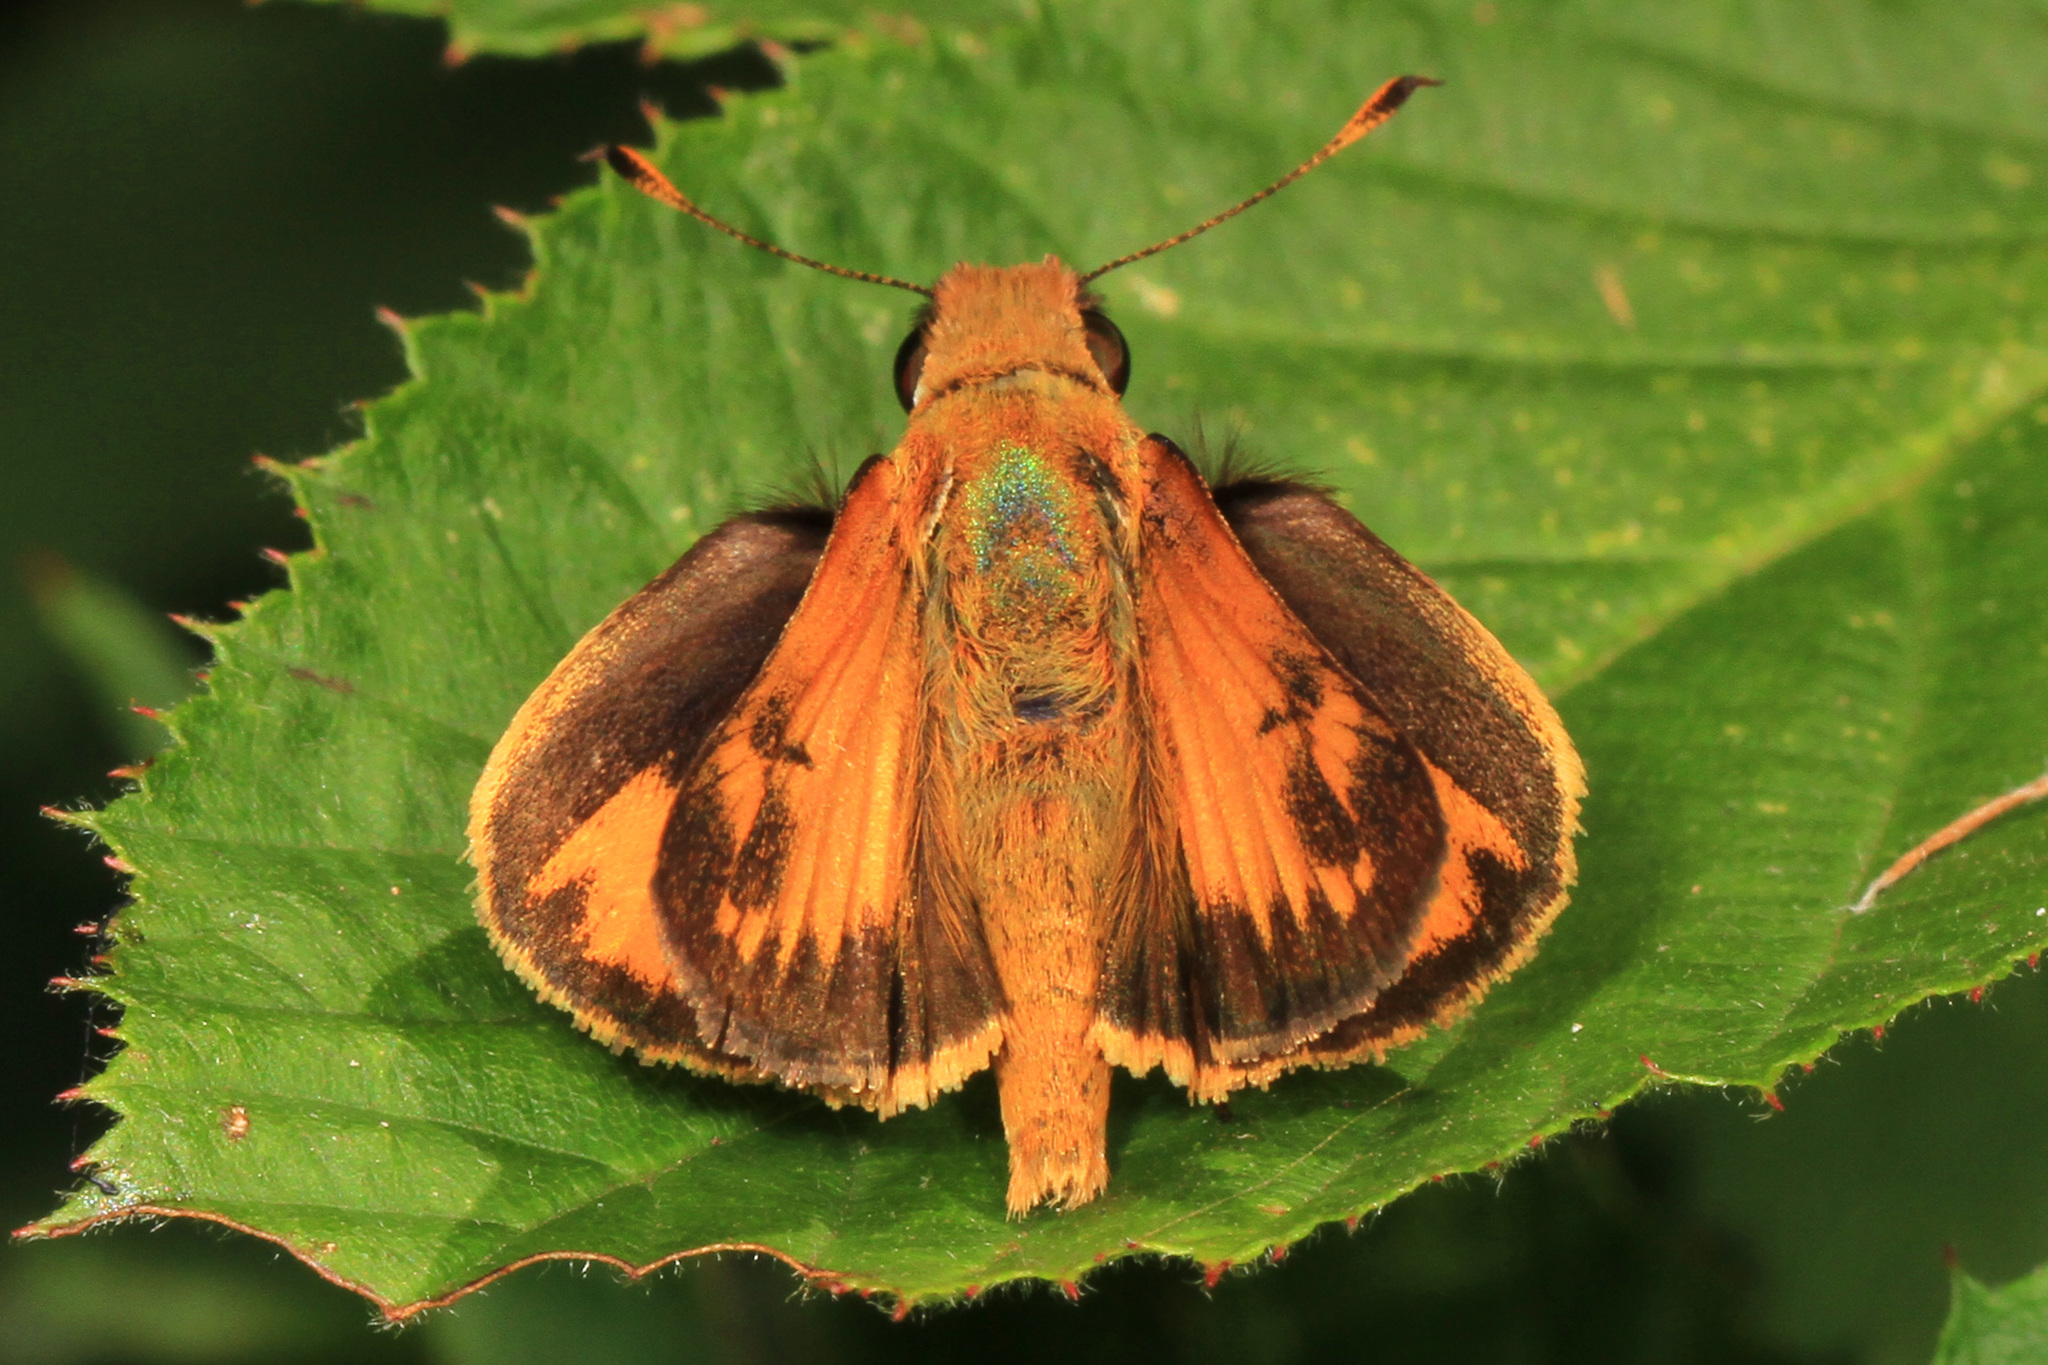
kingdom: Animalia
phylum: Arthropoda
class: Insecta
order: Lepidoptera
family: Hesperiidae
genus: Lon
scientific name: Lon zabulon
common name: Zabulon skipper
